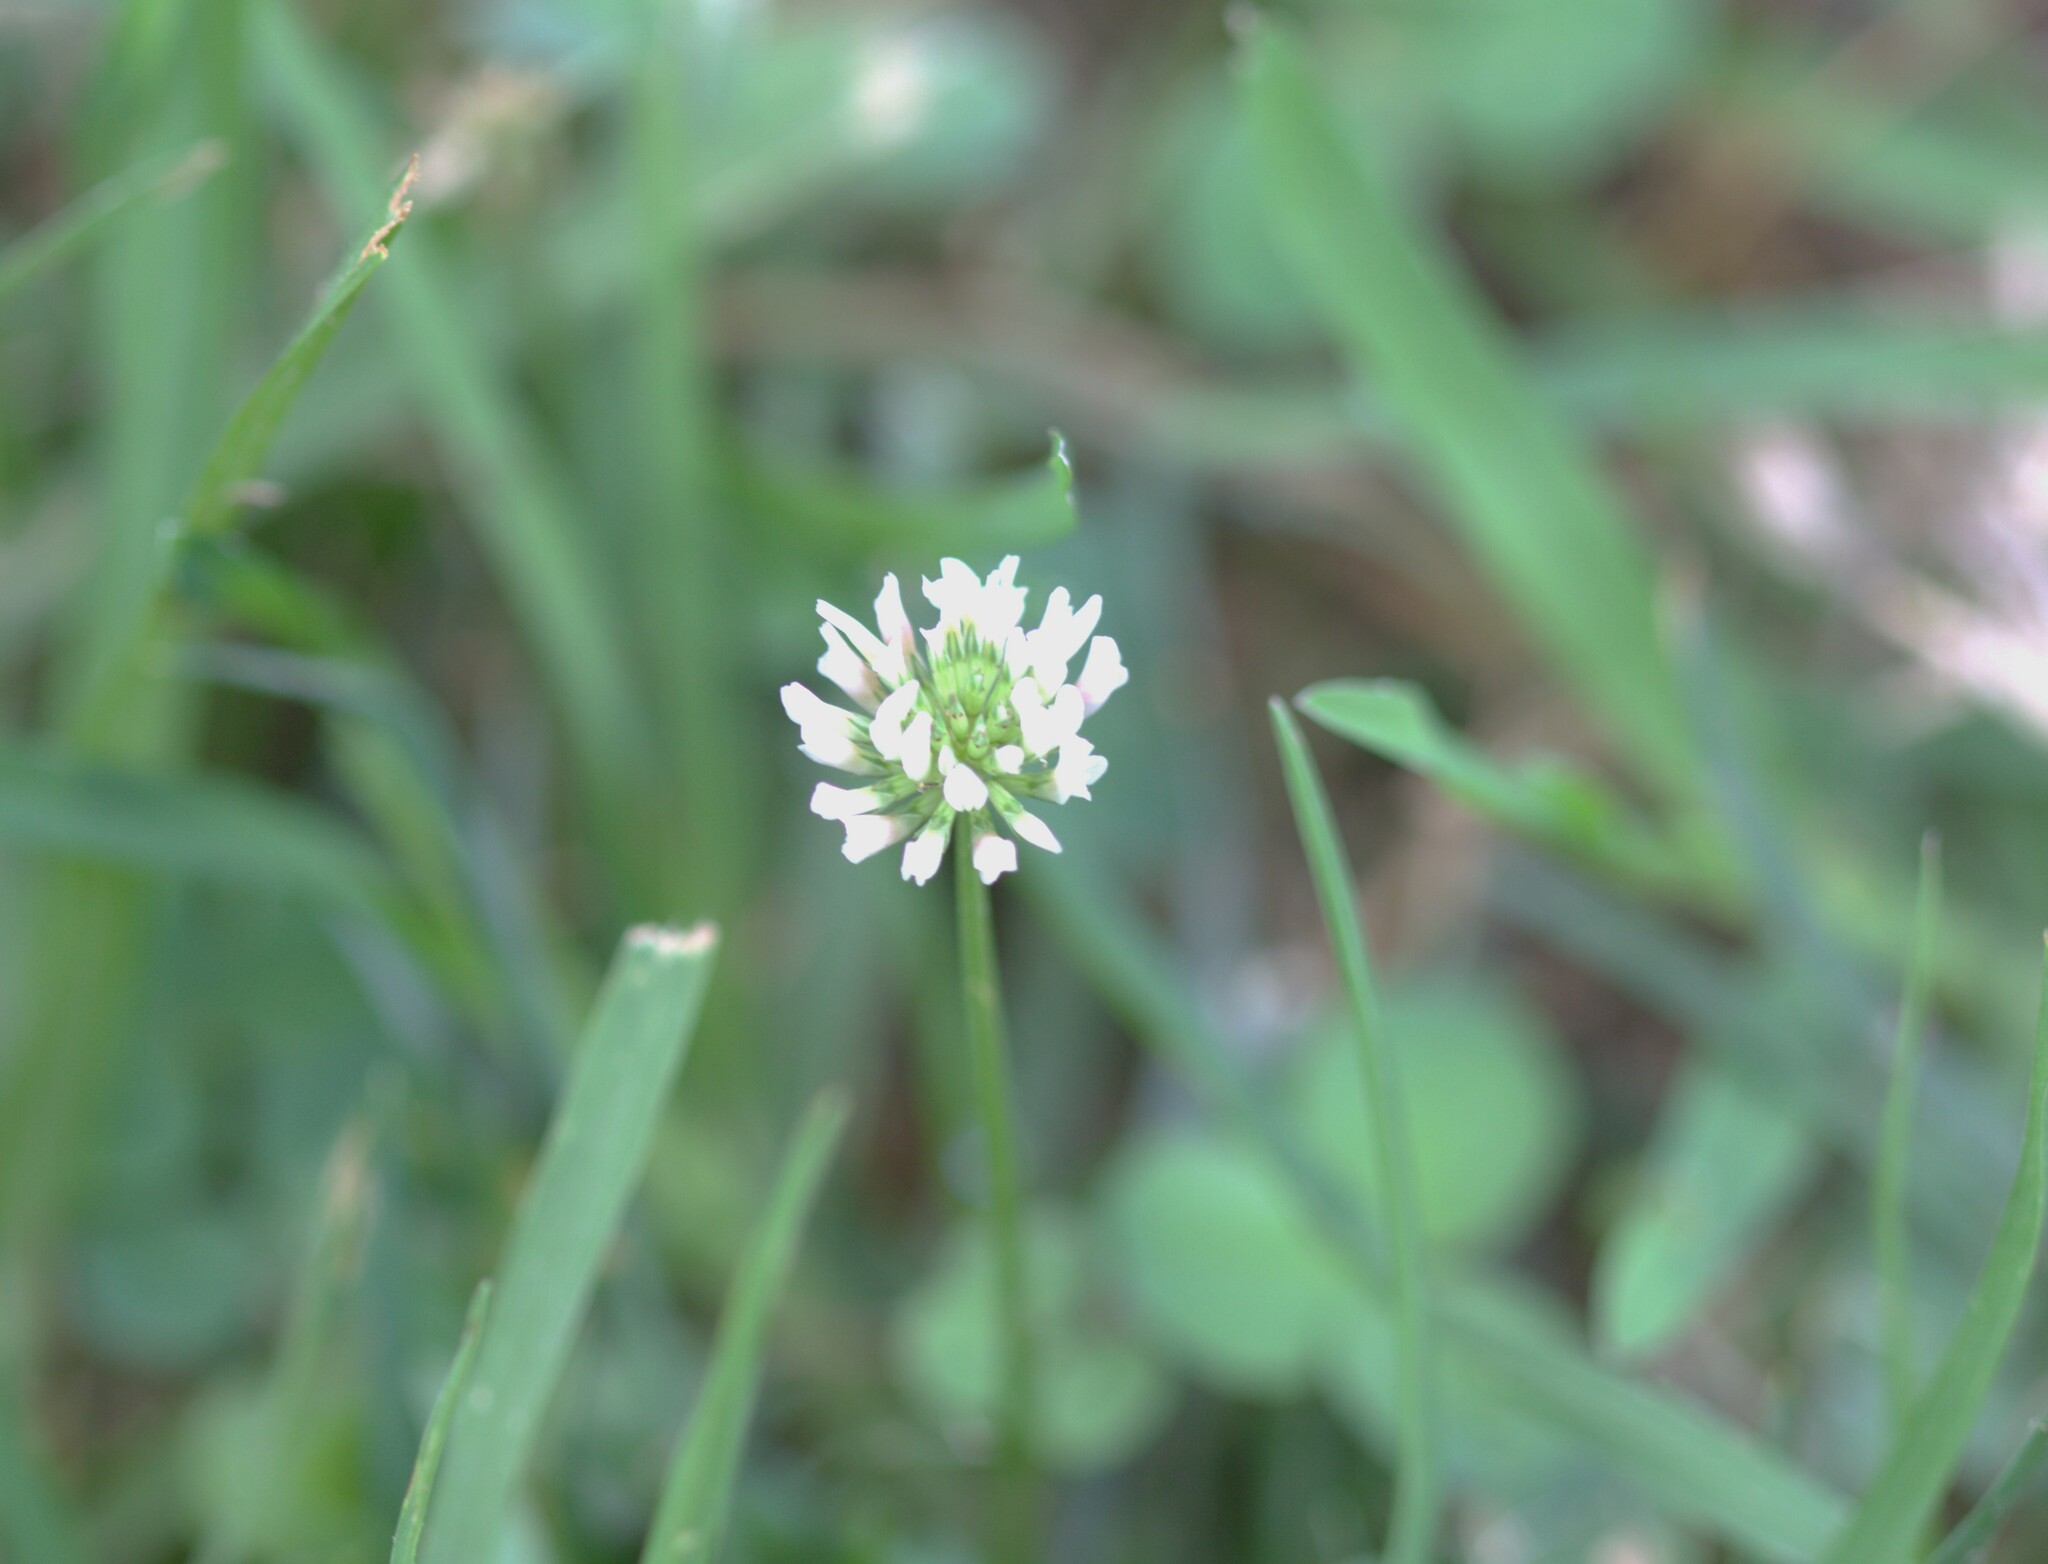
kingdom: Plantae
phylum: Tracheophyta
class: Magnoliopsida
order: Fabales
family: Fabaceae
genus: Trifolium
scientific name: Trifolium repens
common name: White clover
